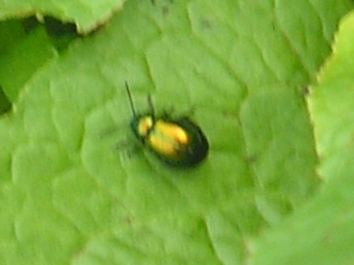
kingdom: Animalia
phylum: Arthropoda
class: Insecta
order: Coleoptera
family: Chrysomelidae
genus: Gastrophysa
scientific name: Gastrophysa viridula
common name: Green dock beetle
